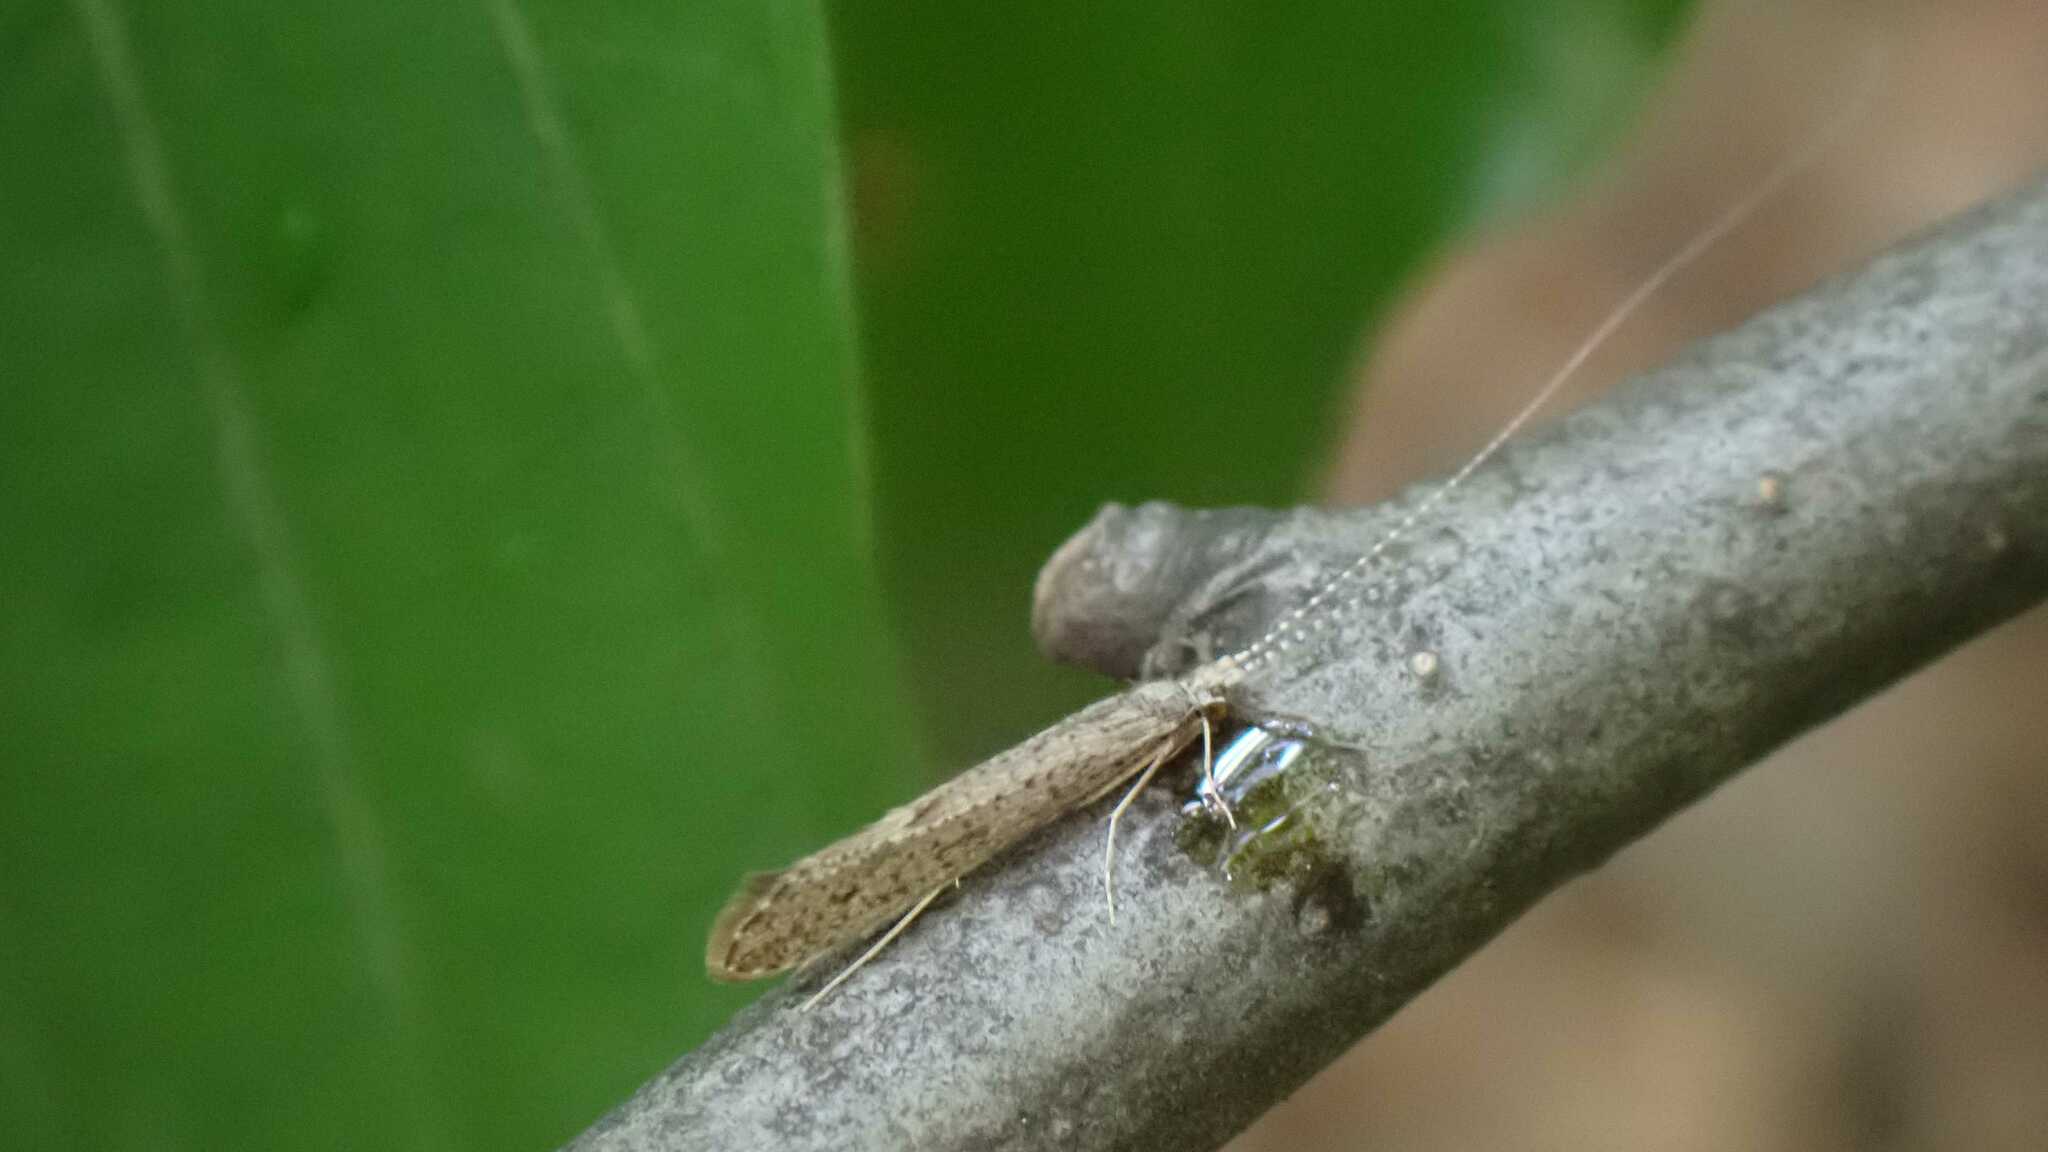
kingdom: Animalia
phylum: Arthropoda
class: Insecta
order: Trichoptera
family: Leptoceridae
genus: Leptocerus
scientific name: Leptocerus tineiformis
